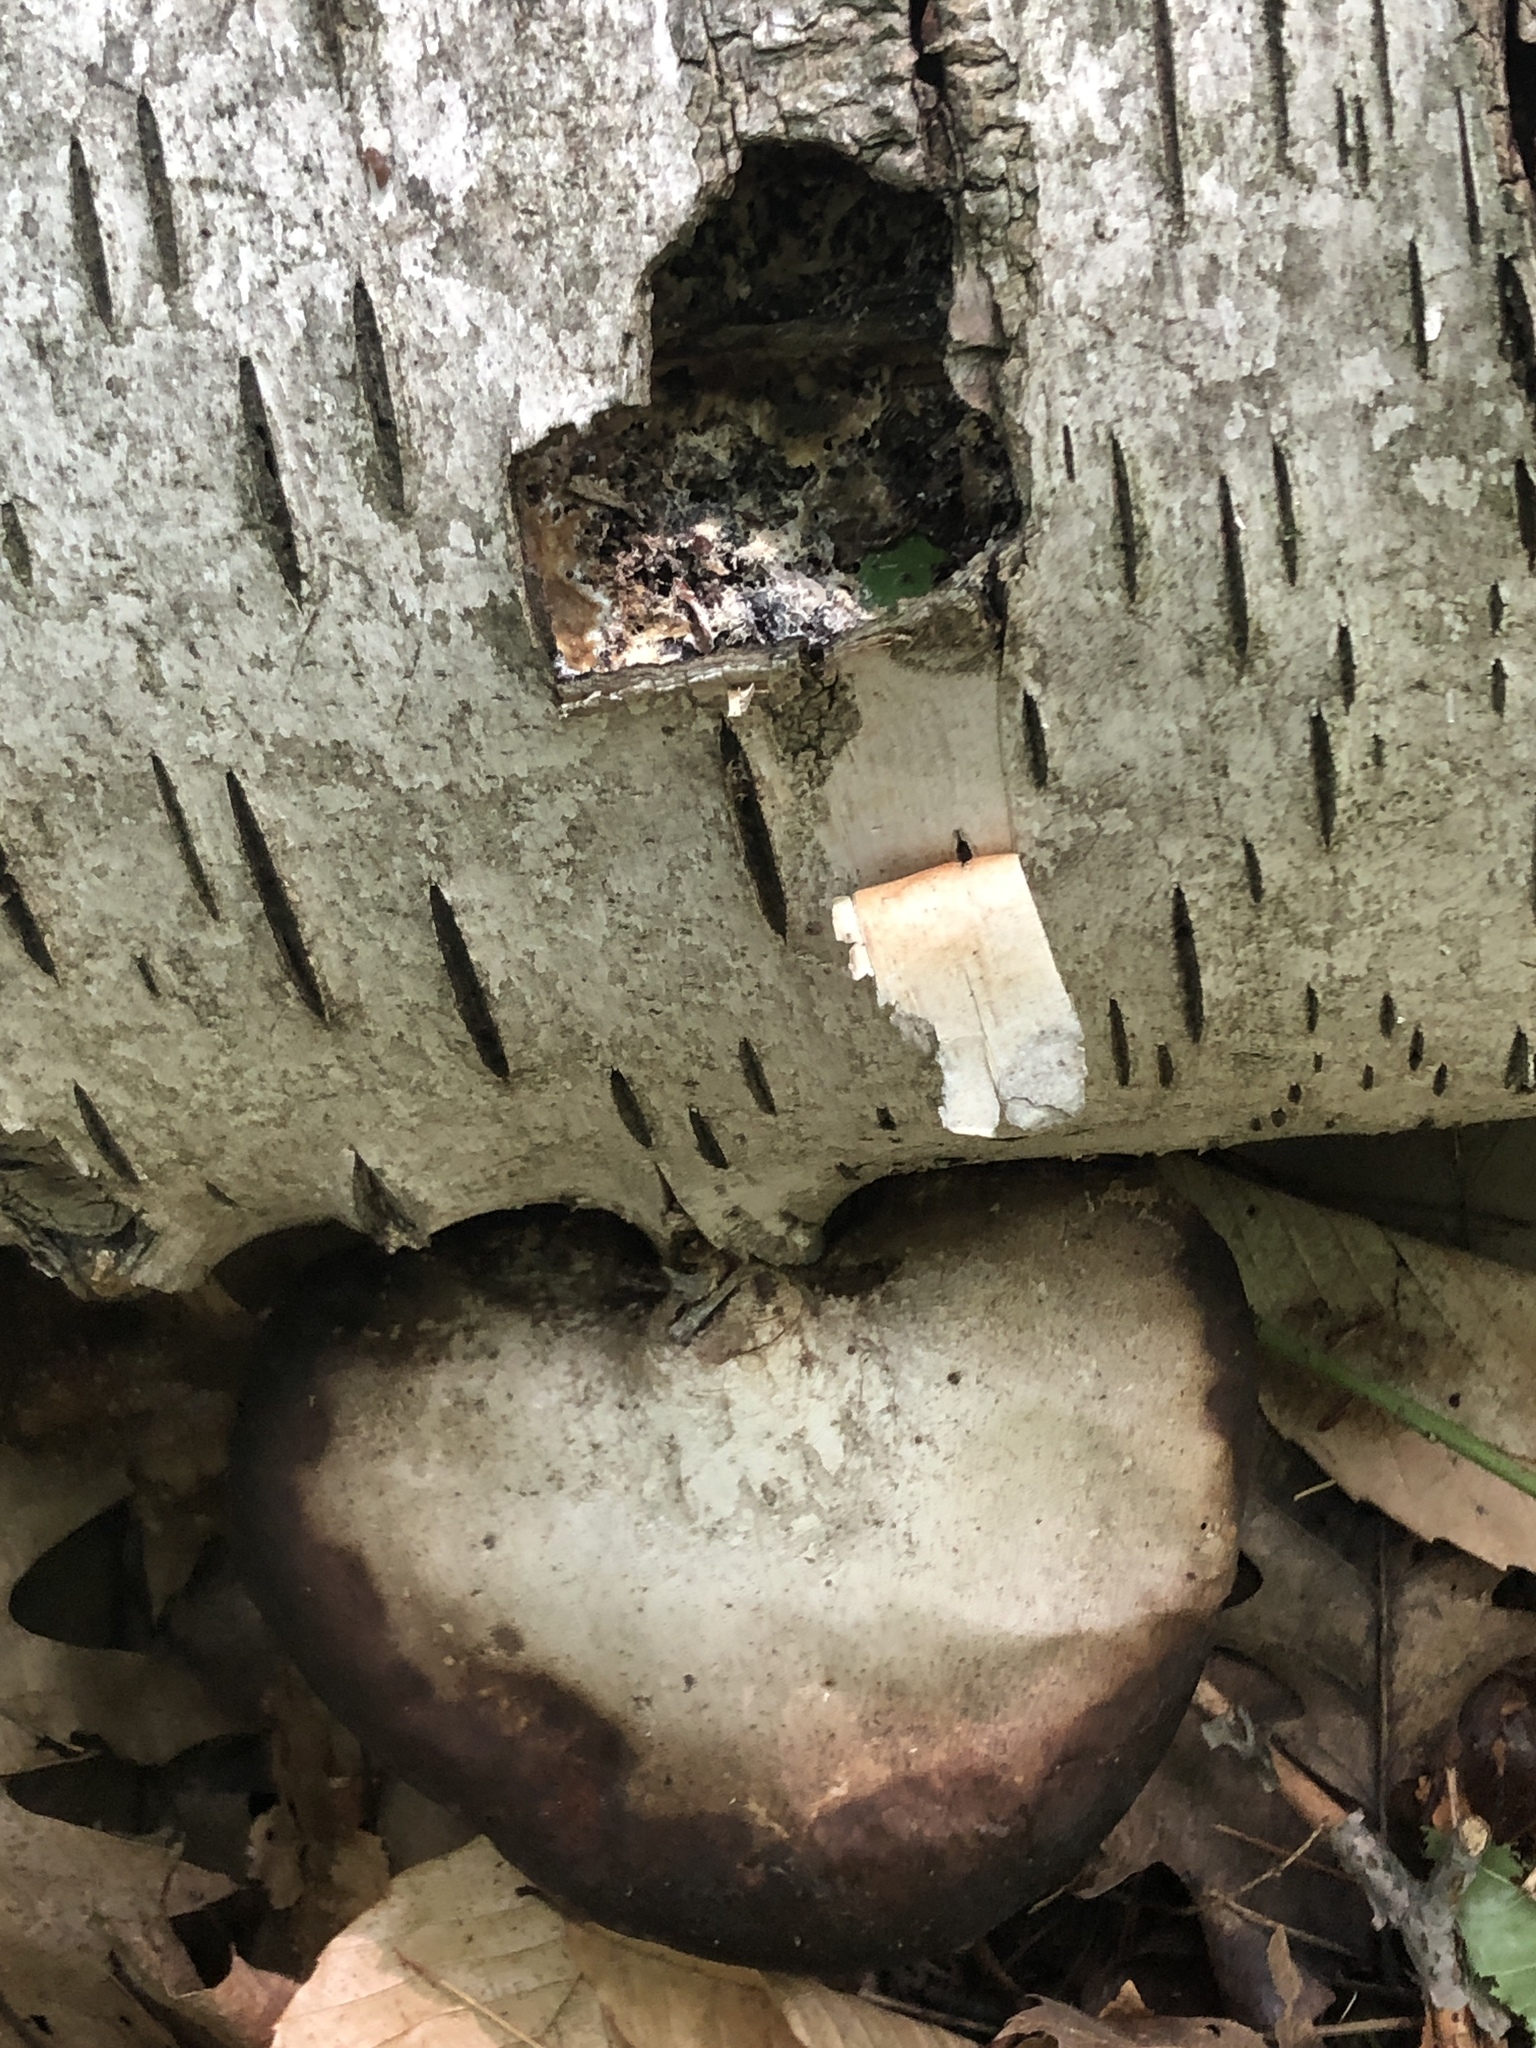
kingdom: Fungi
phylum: Basidiomycota
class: Agaricomycetes
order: Polyporales
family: Fomitopsidaceae
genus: Fomitopsis
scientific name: Fomitopsis betulina
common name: Birch polypore
